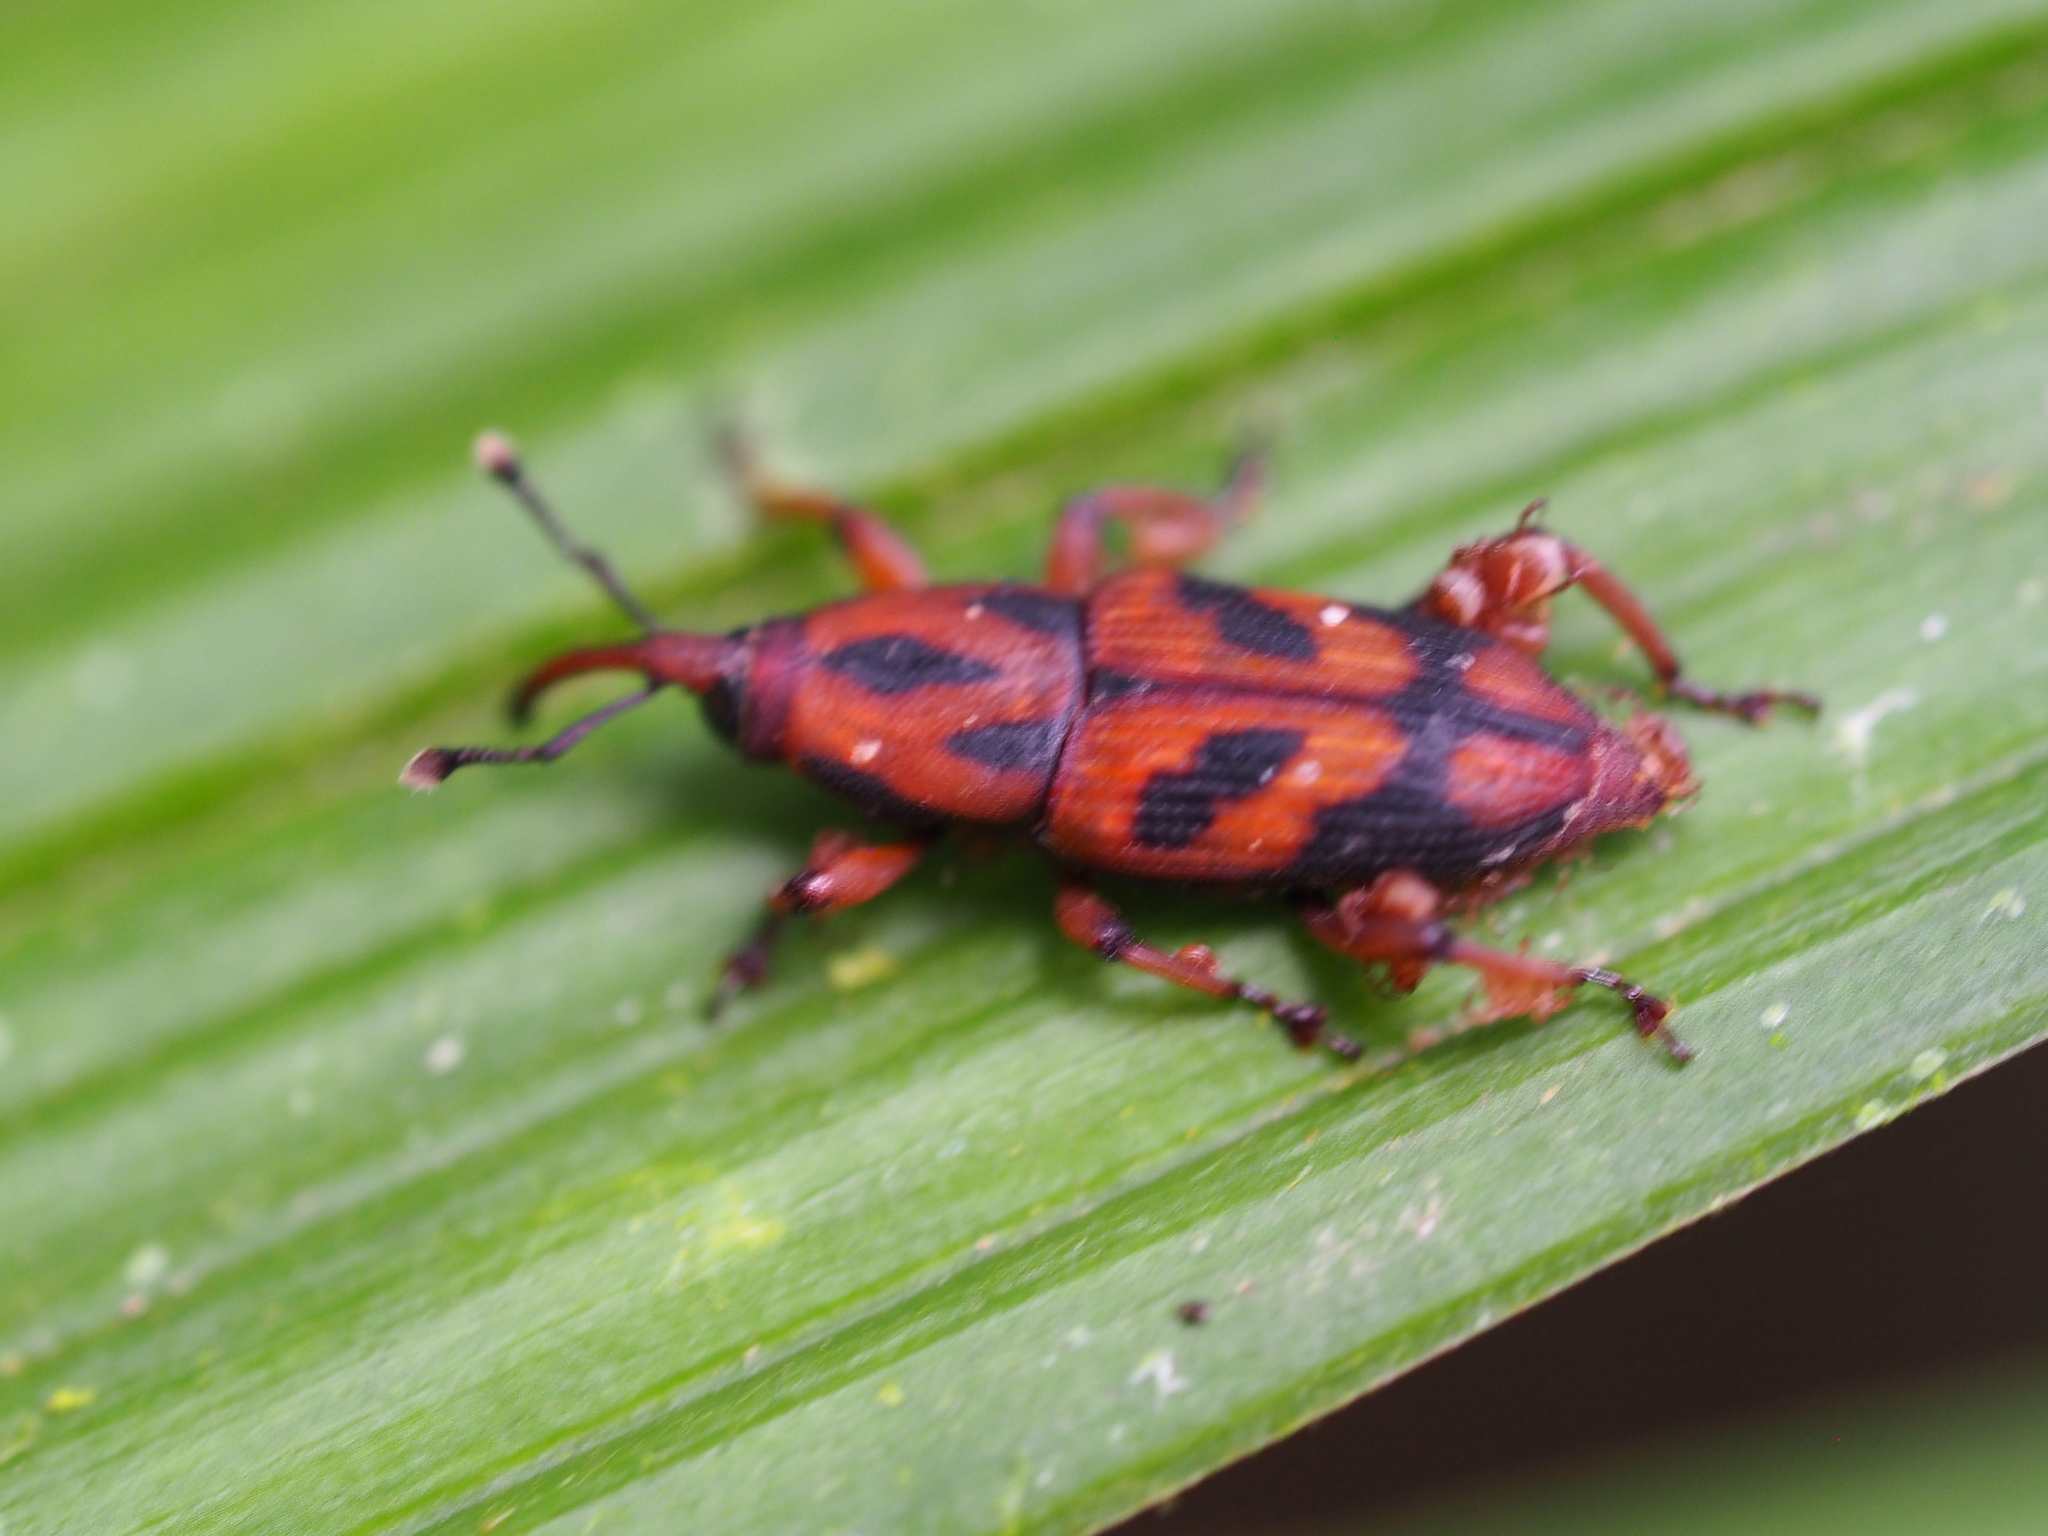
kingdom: Animalia
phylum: Arthropoda
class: Insecta
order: Coleoptera
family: Dryophthoridae
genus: Metamasius
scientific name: Metamasius dasyurus
